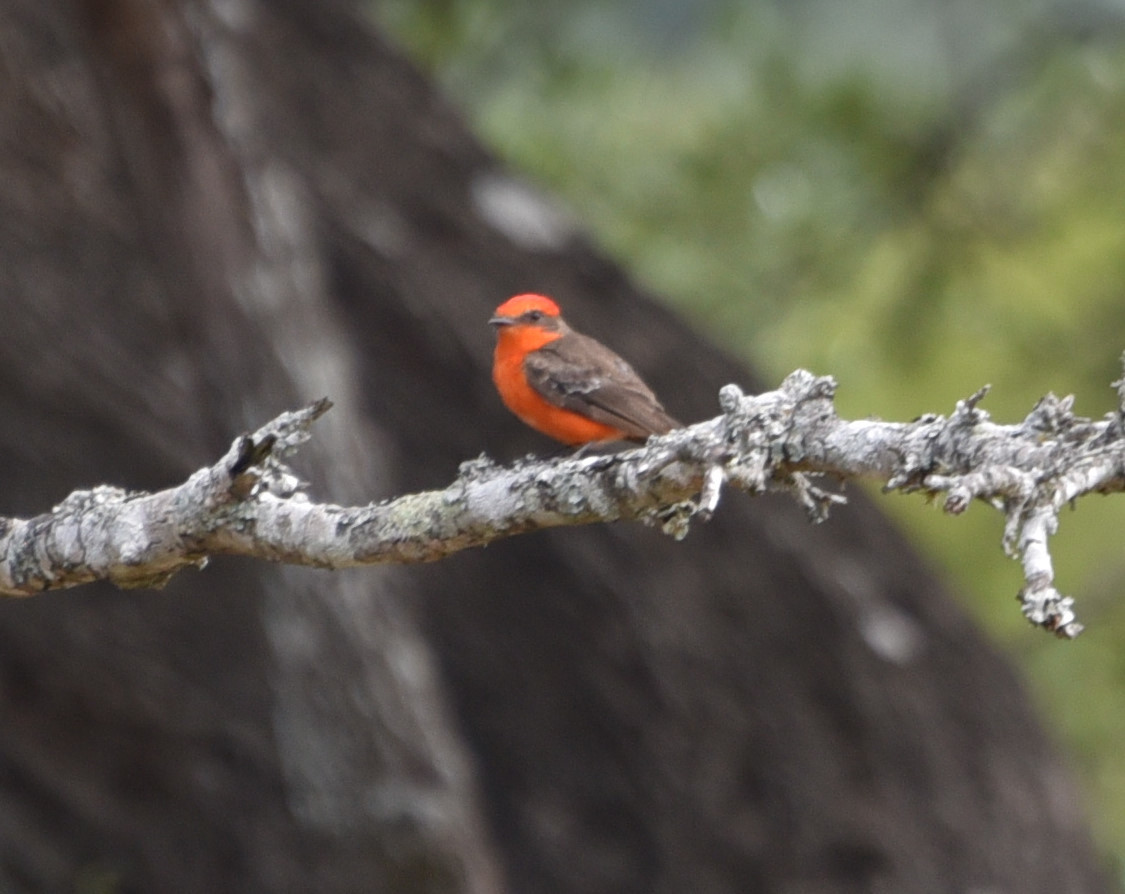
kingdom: Animalia
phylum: Chordata
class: Aves
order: Passeriformes
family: Tyrannidae
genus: Pyrocephalus
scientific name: Pyrocephalus rubinus
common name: Vermilion flycatcher
